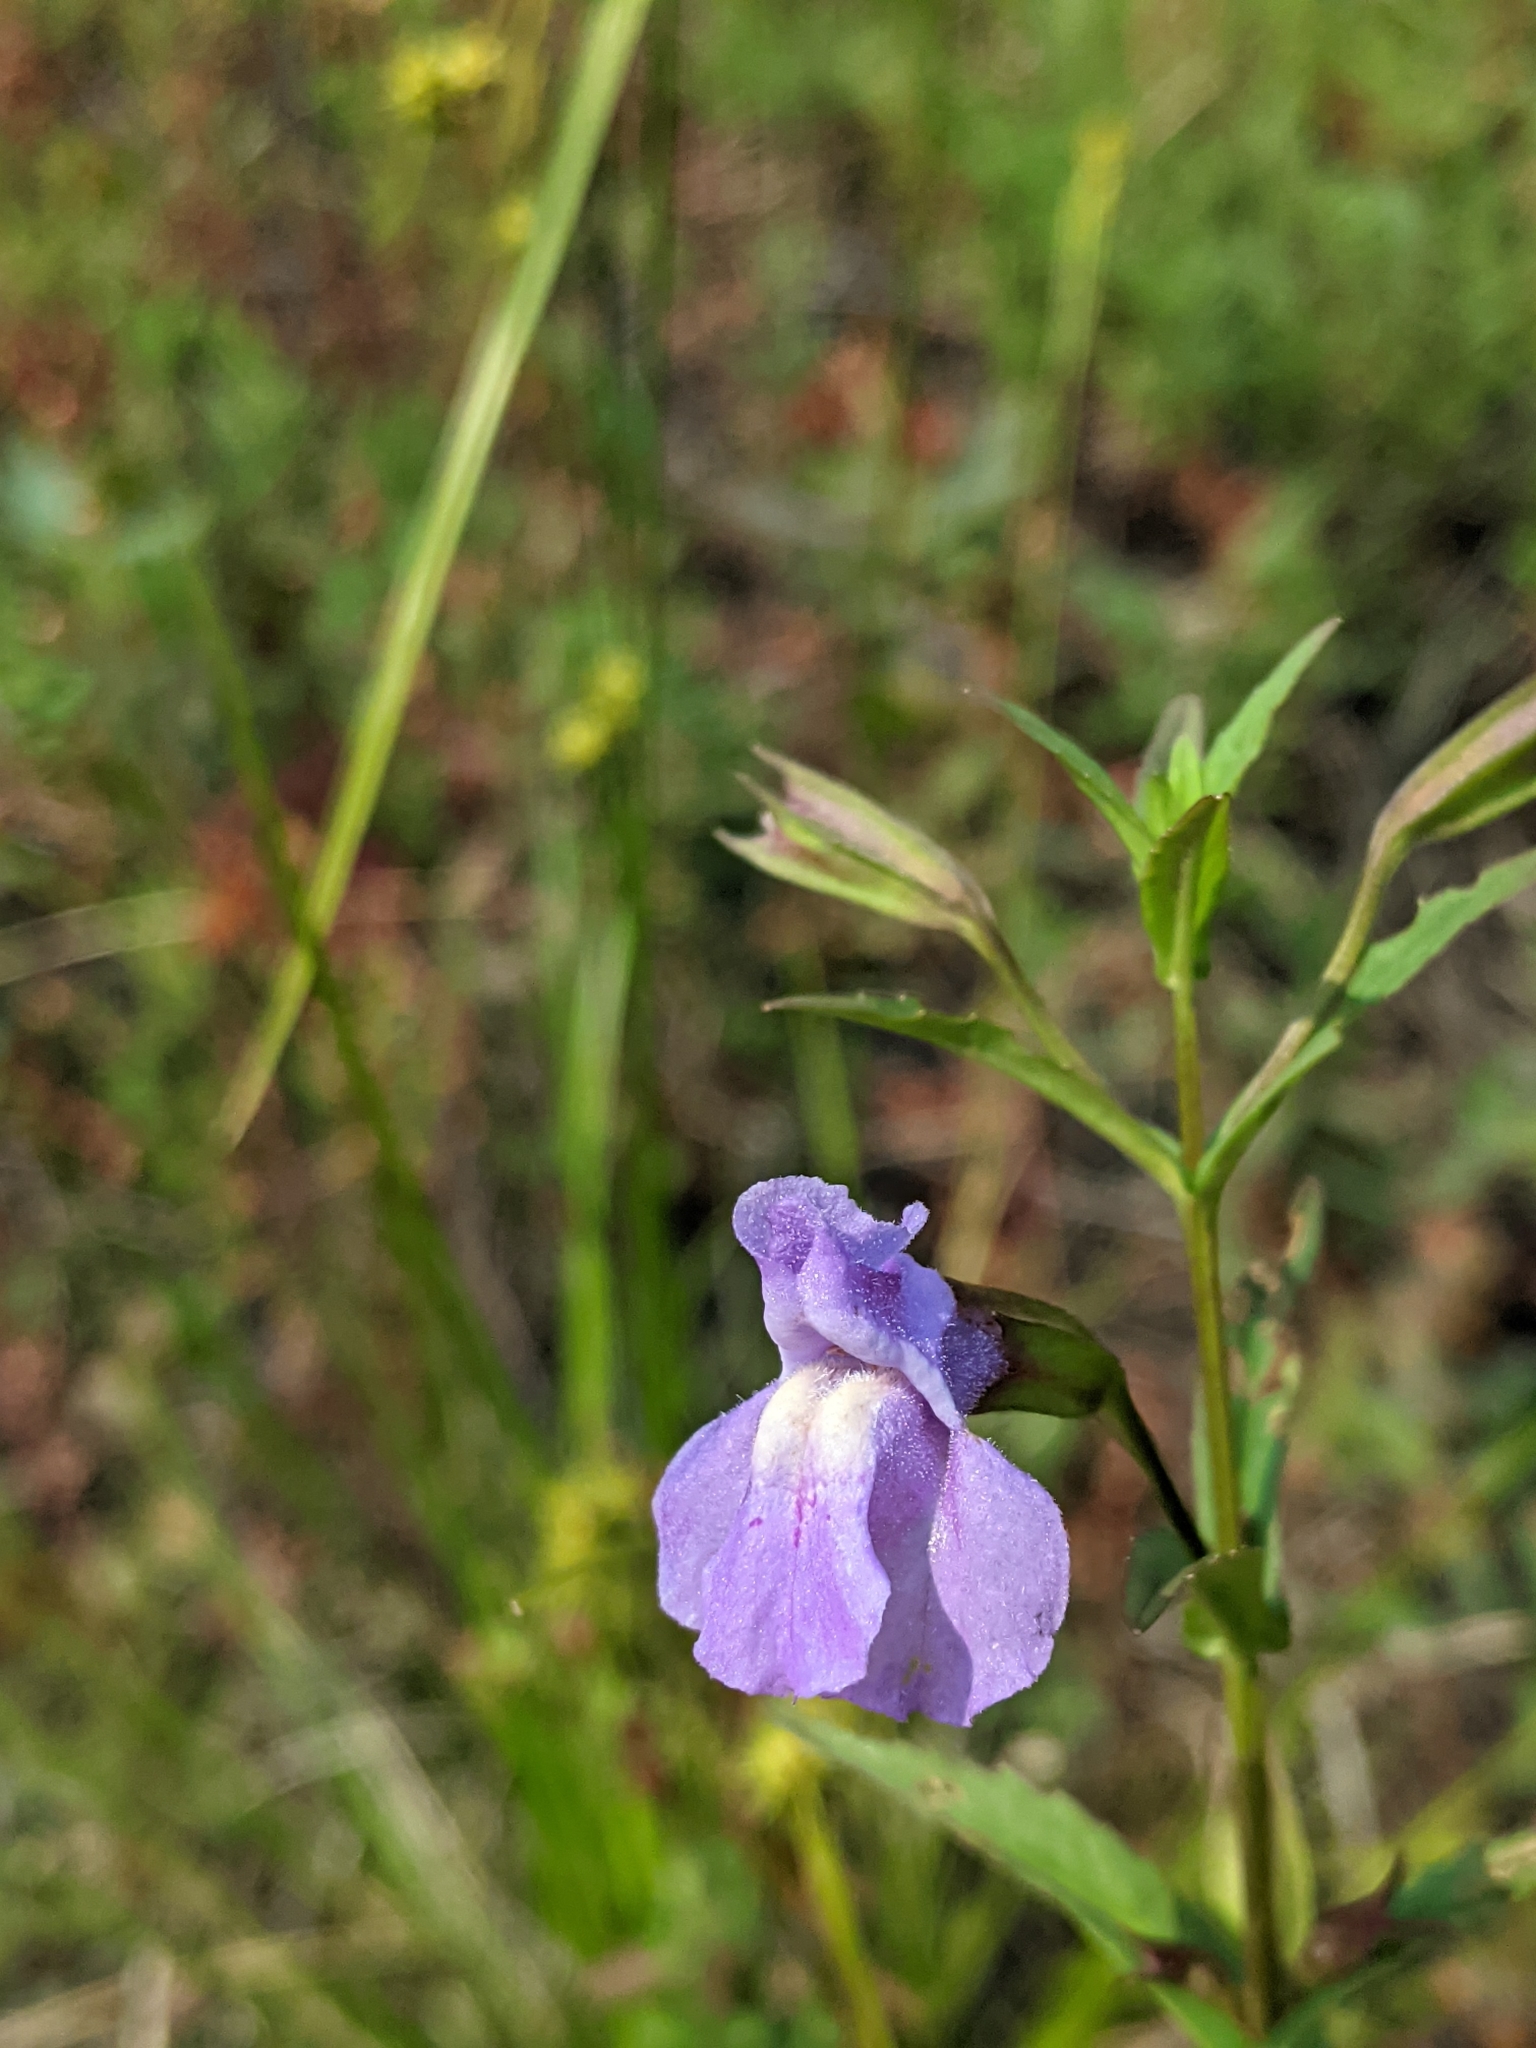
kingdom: Plantae
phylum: Tracheophyta
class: Magnoliopsida
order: Lamiales
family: Phrymaceae
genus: Mimulus
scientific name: Mimulus ringens
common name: Allegheny monkeyflower
